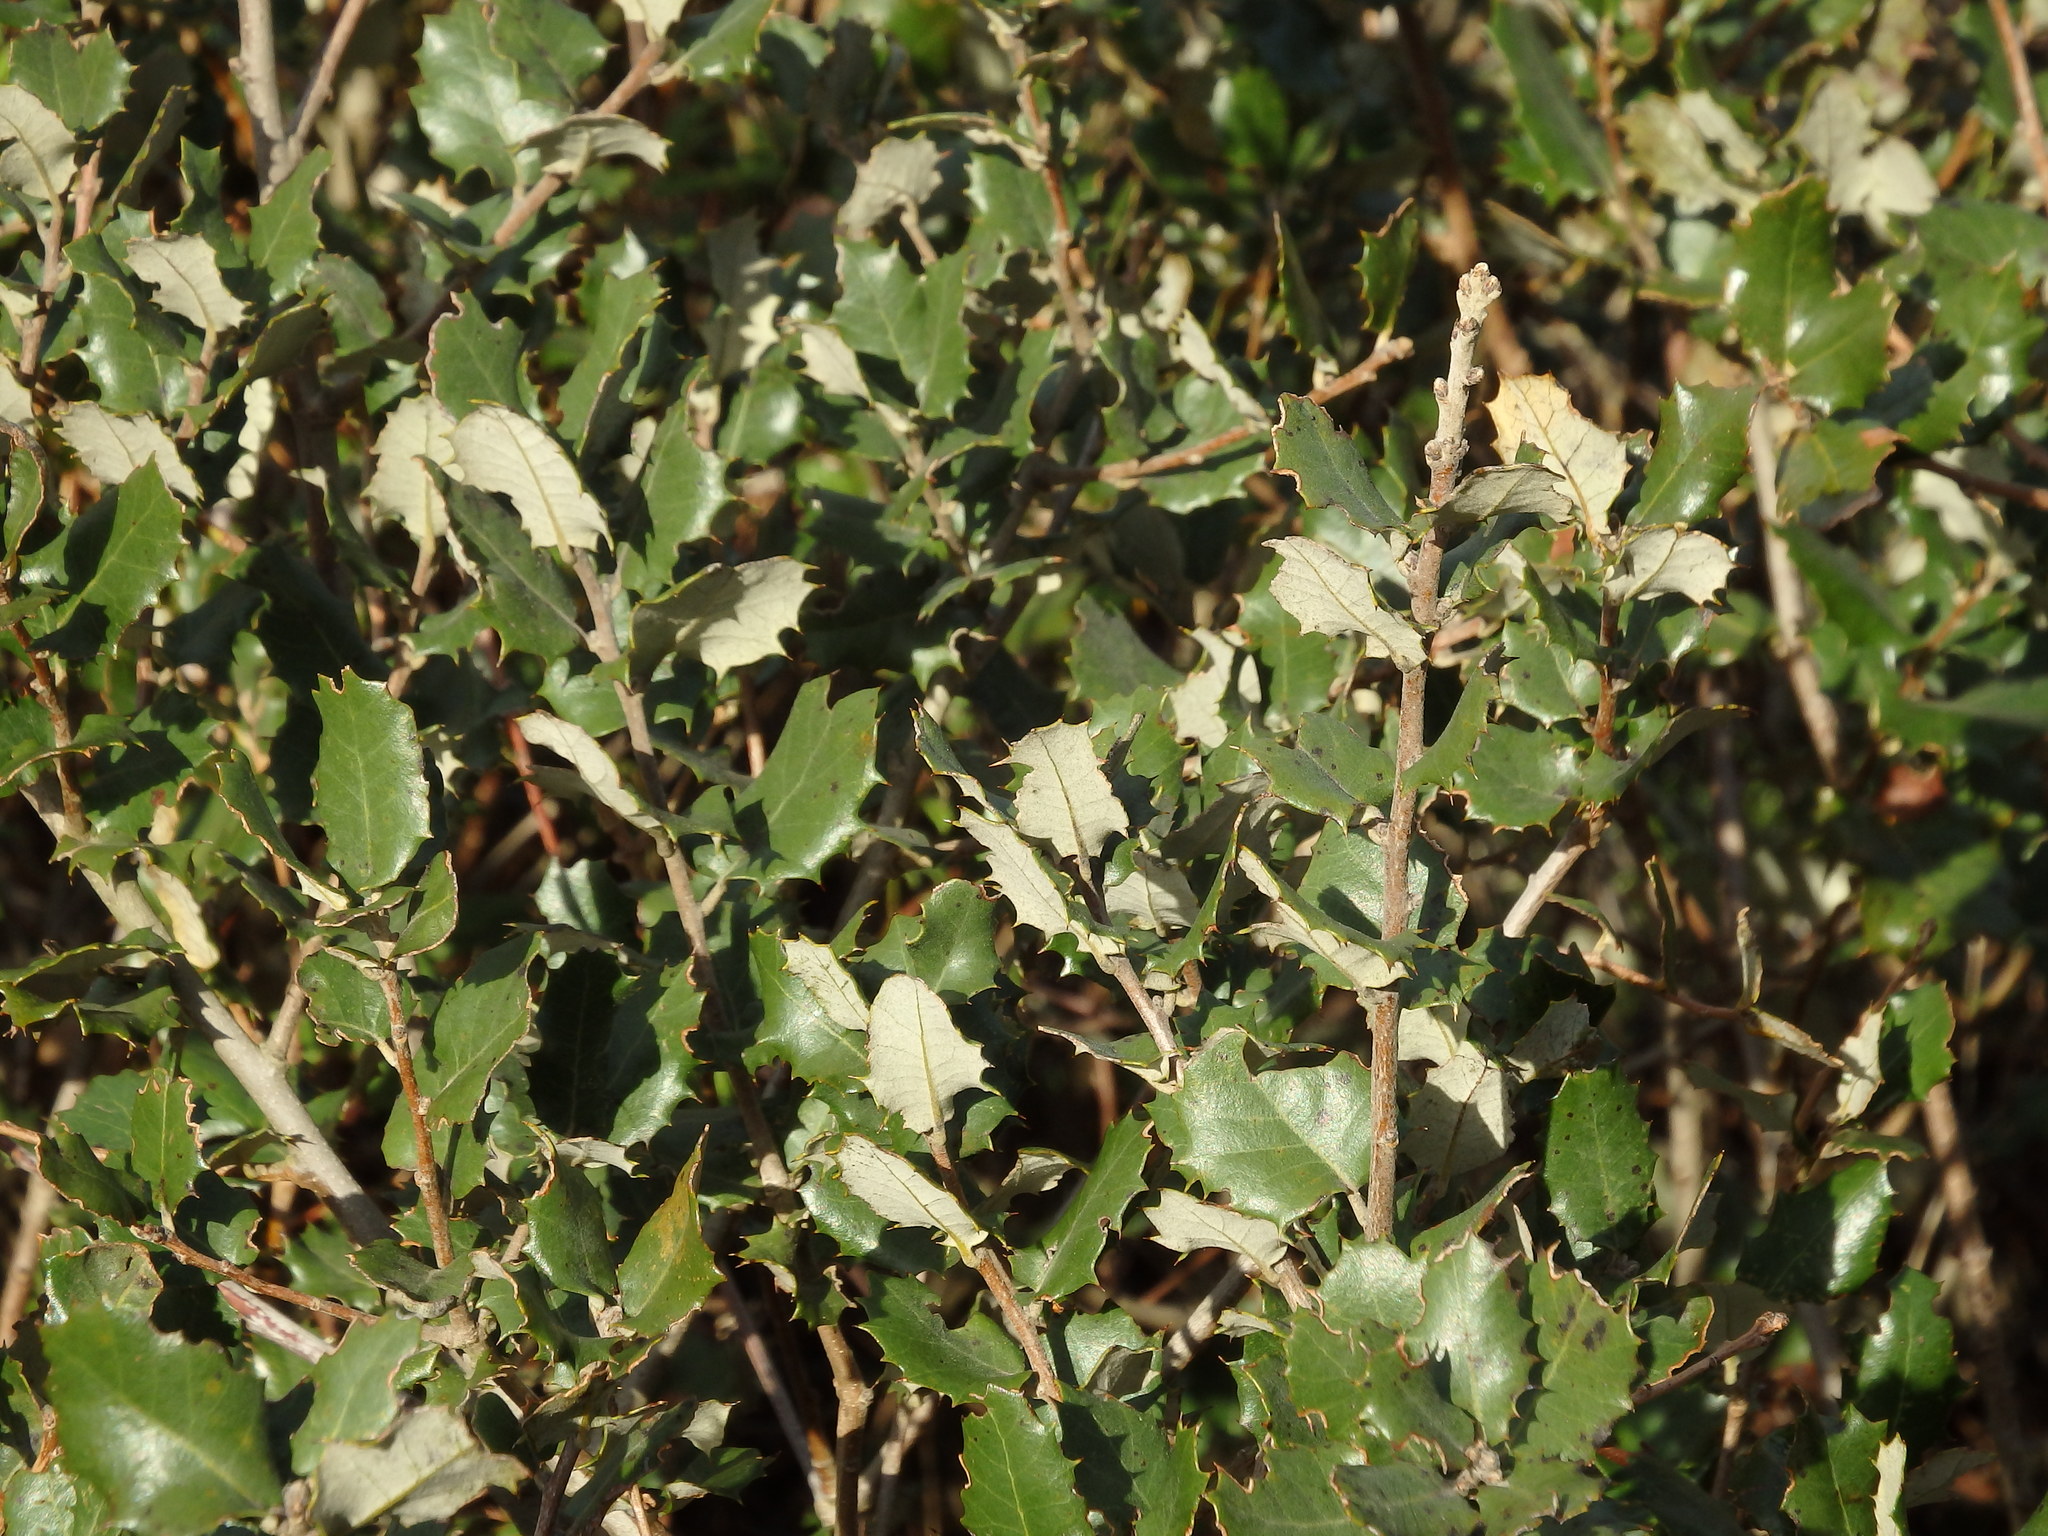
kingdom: Plantae
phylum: Tracheophyta
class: Magnoliopsida
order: Fagales
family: Fagaceae
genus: Quercus
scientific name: Quercus rotundifolia
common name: Holm oak
